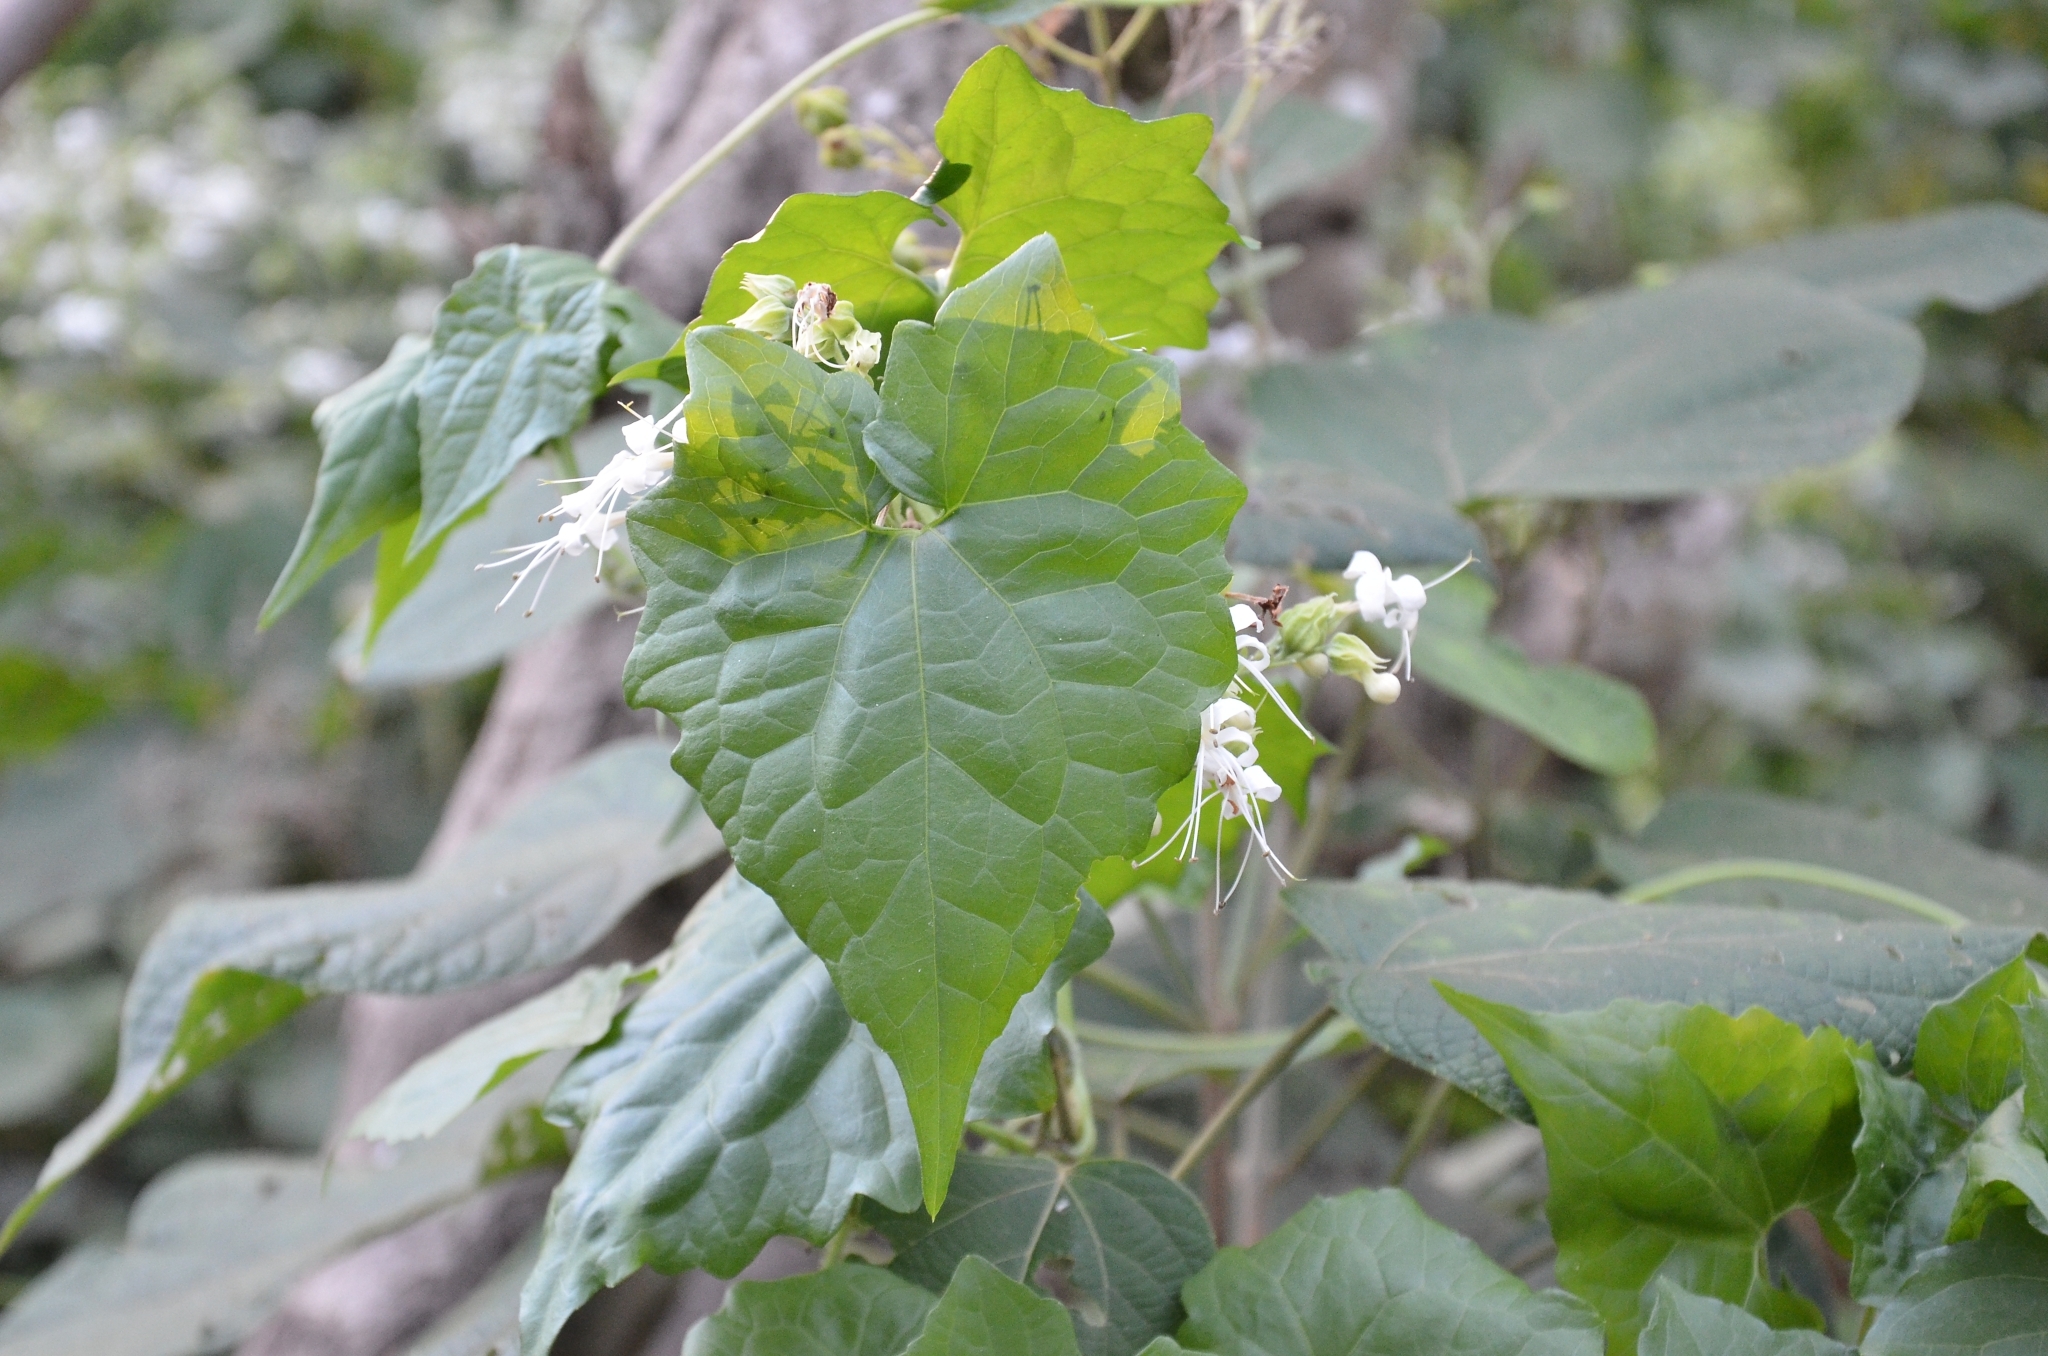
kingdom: Plantae
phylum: Tracheophyta
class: Magnoliopsida
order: Asterales
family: Asteraceae
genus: Mikania
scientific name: Mikania micrantha
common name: Mile-a-minute
